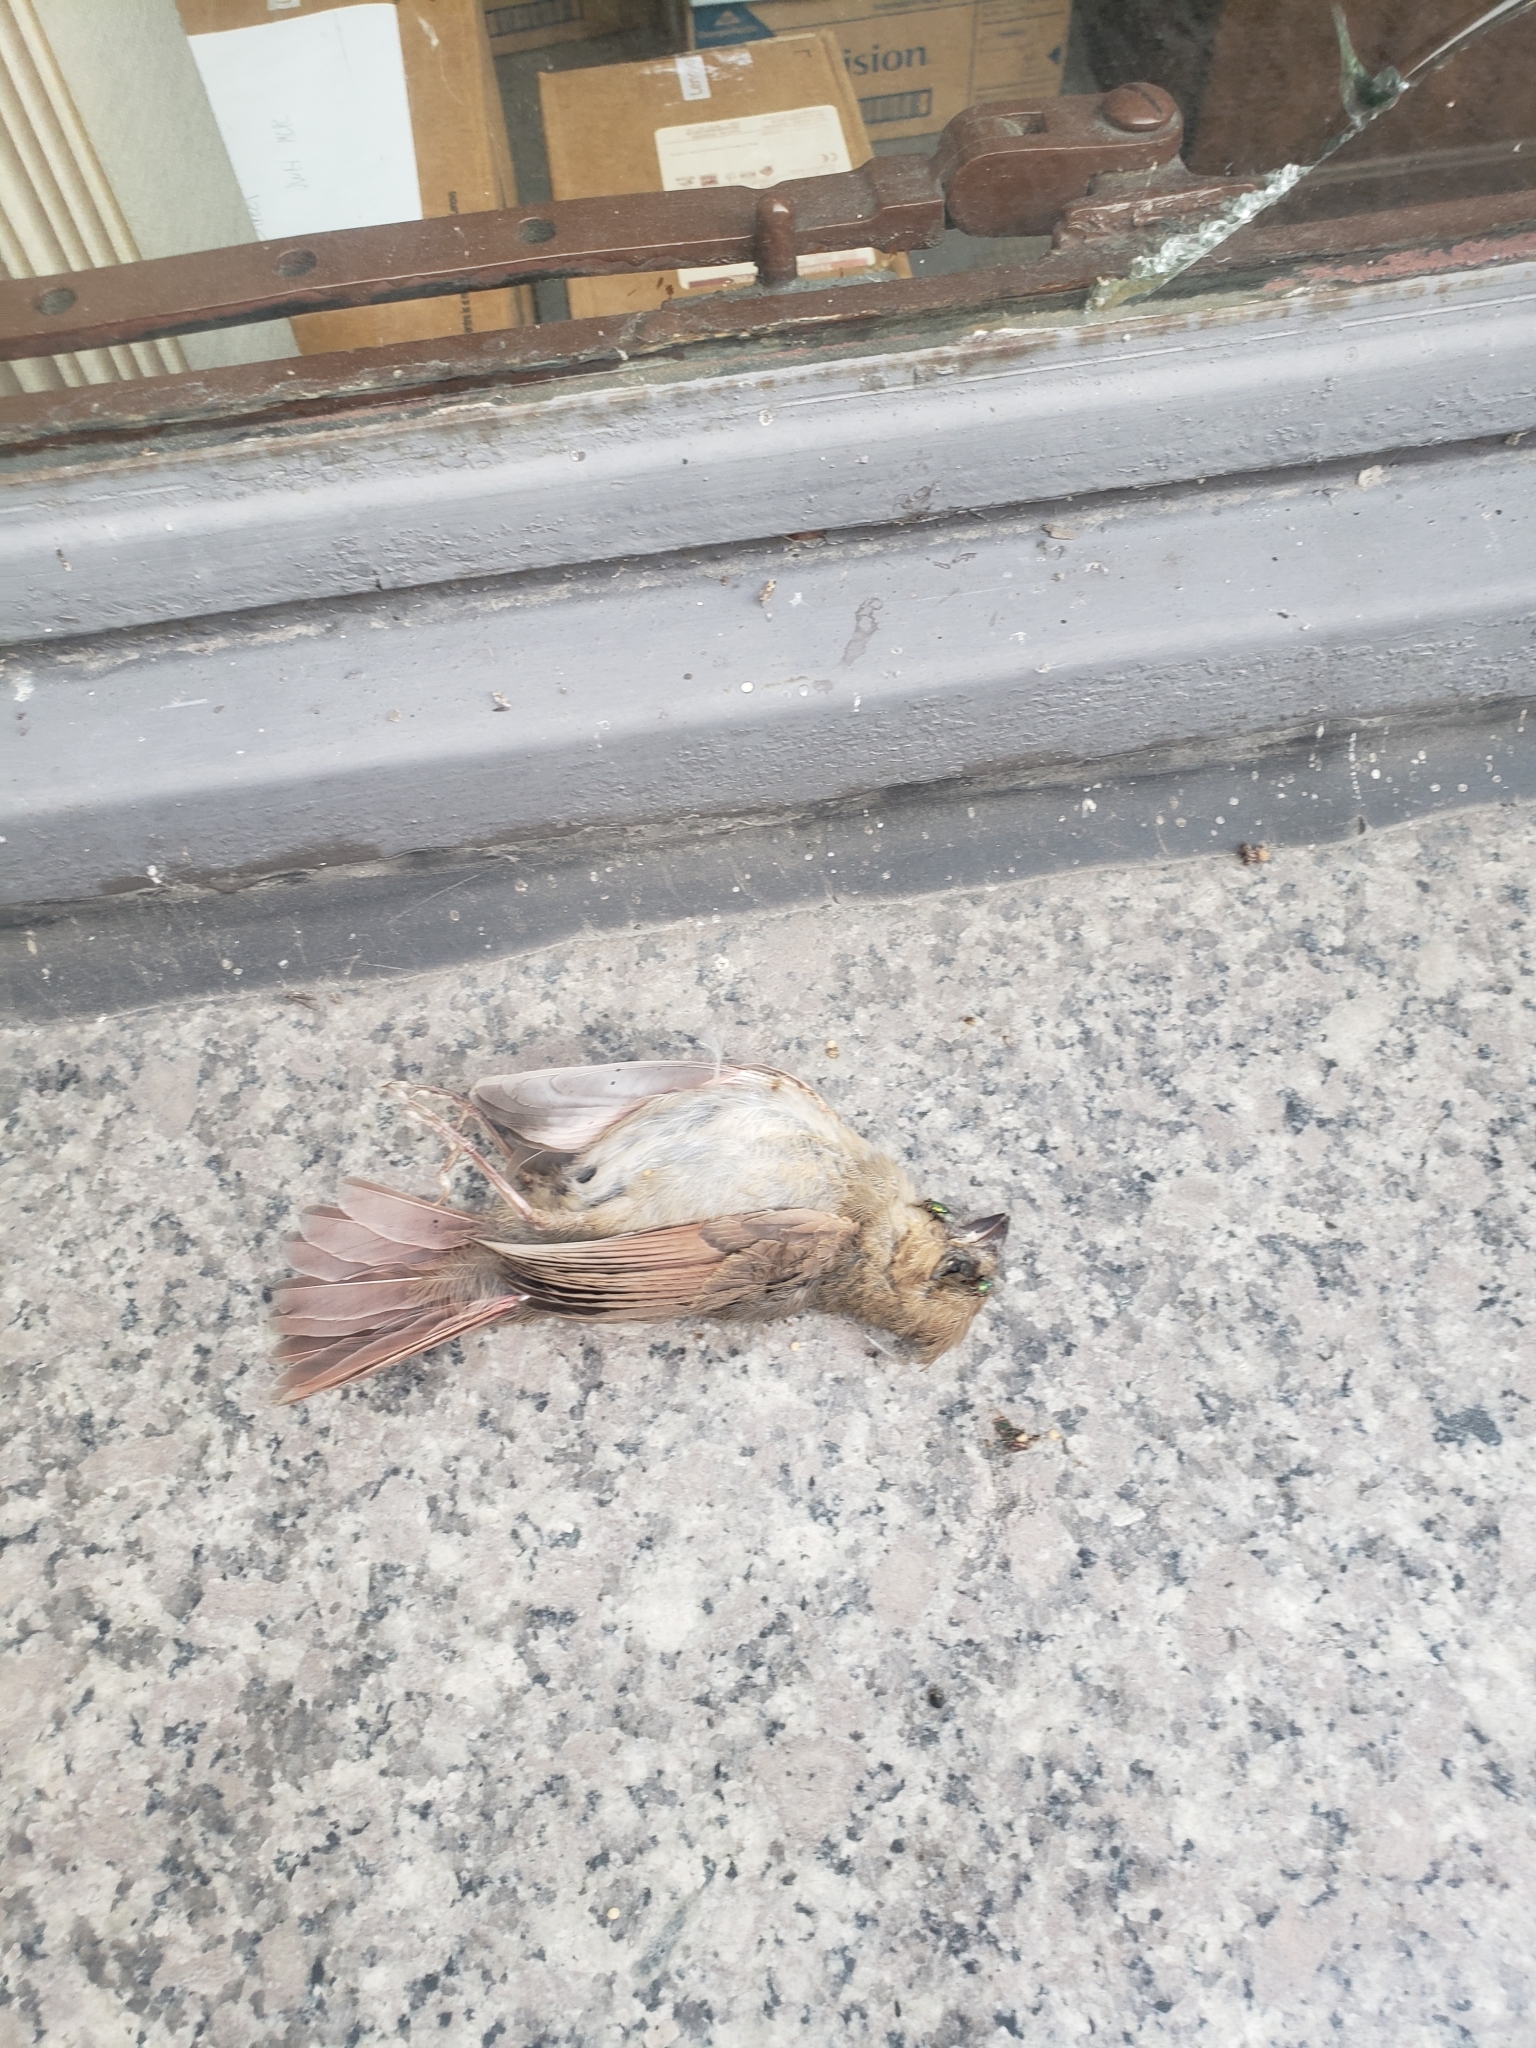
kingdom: Animalia
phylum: Chordata
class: Aves
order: Passeriformes
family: Cardinalidae
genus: Cardinalis
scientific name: Cardinalis cardinalis
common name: Northern cardinal
